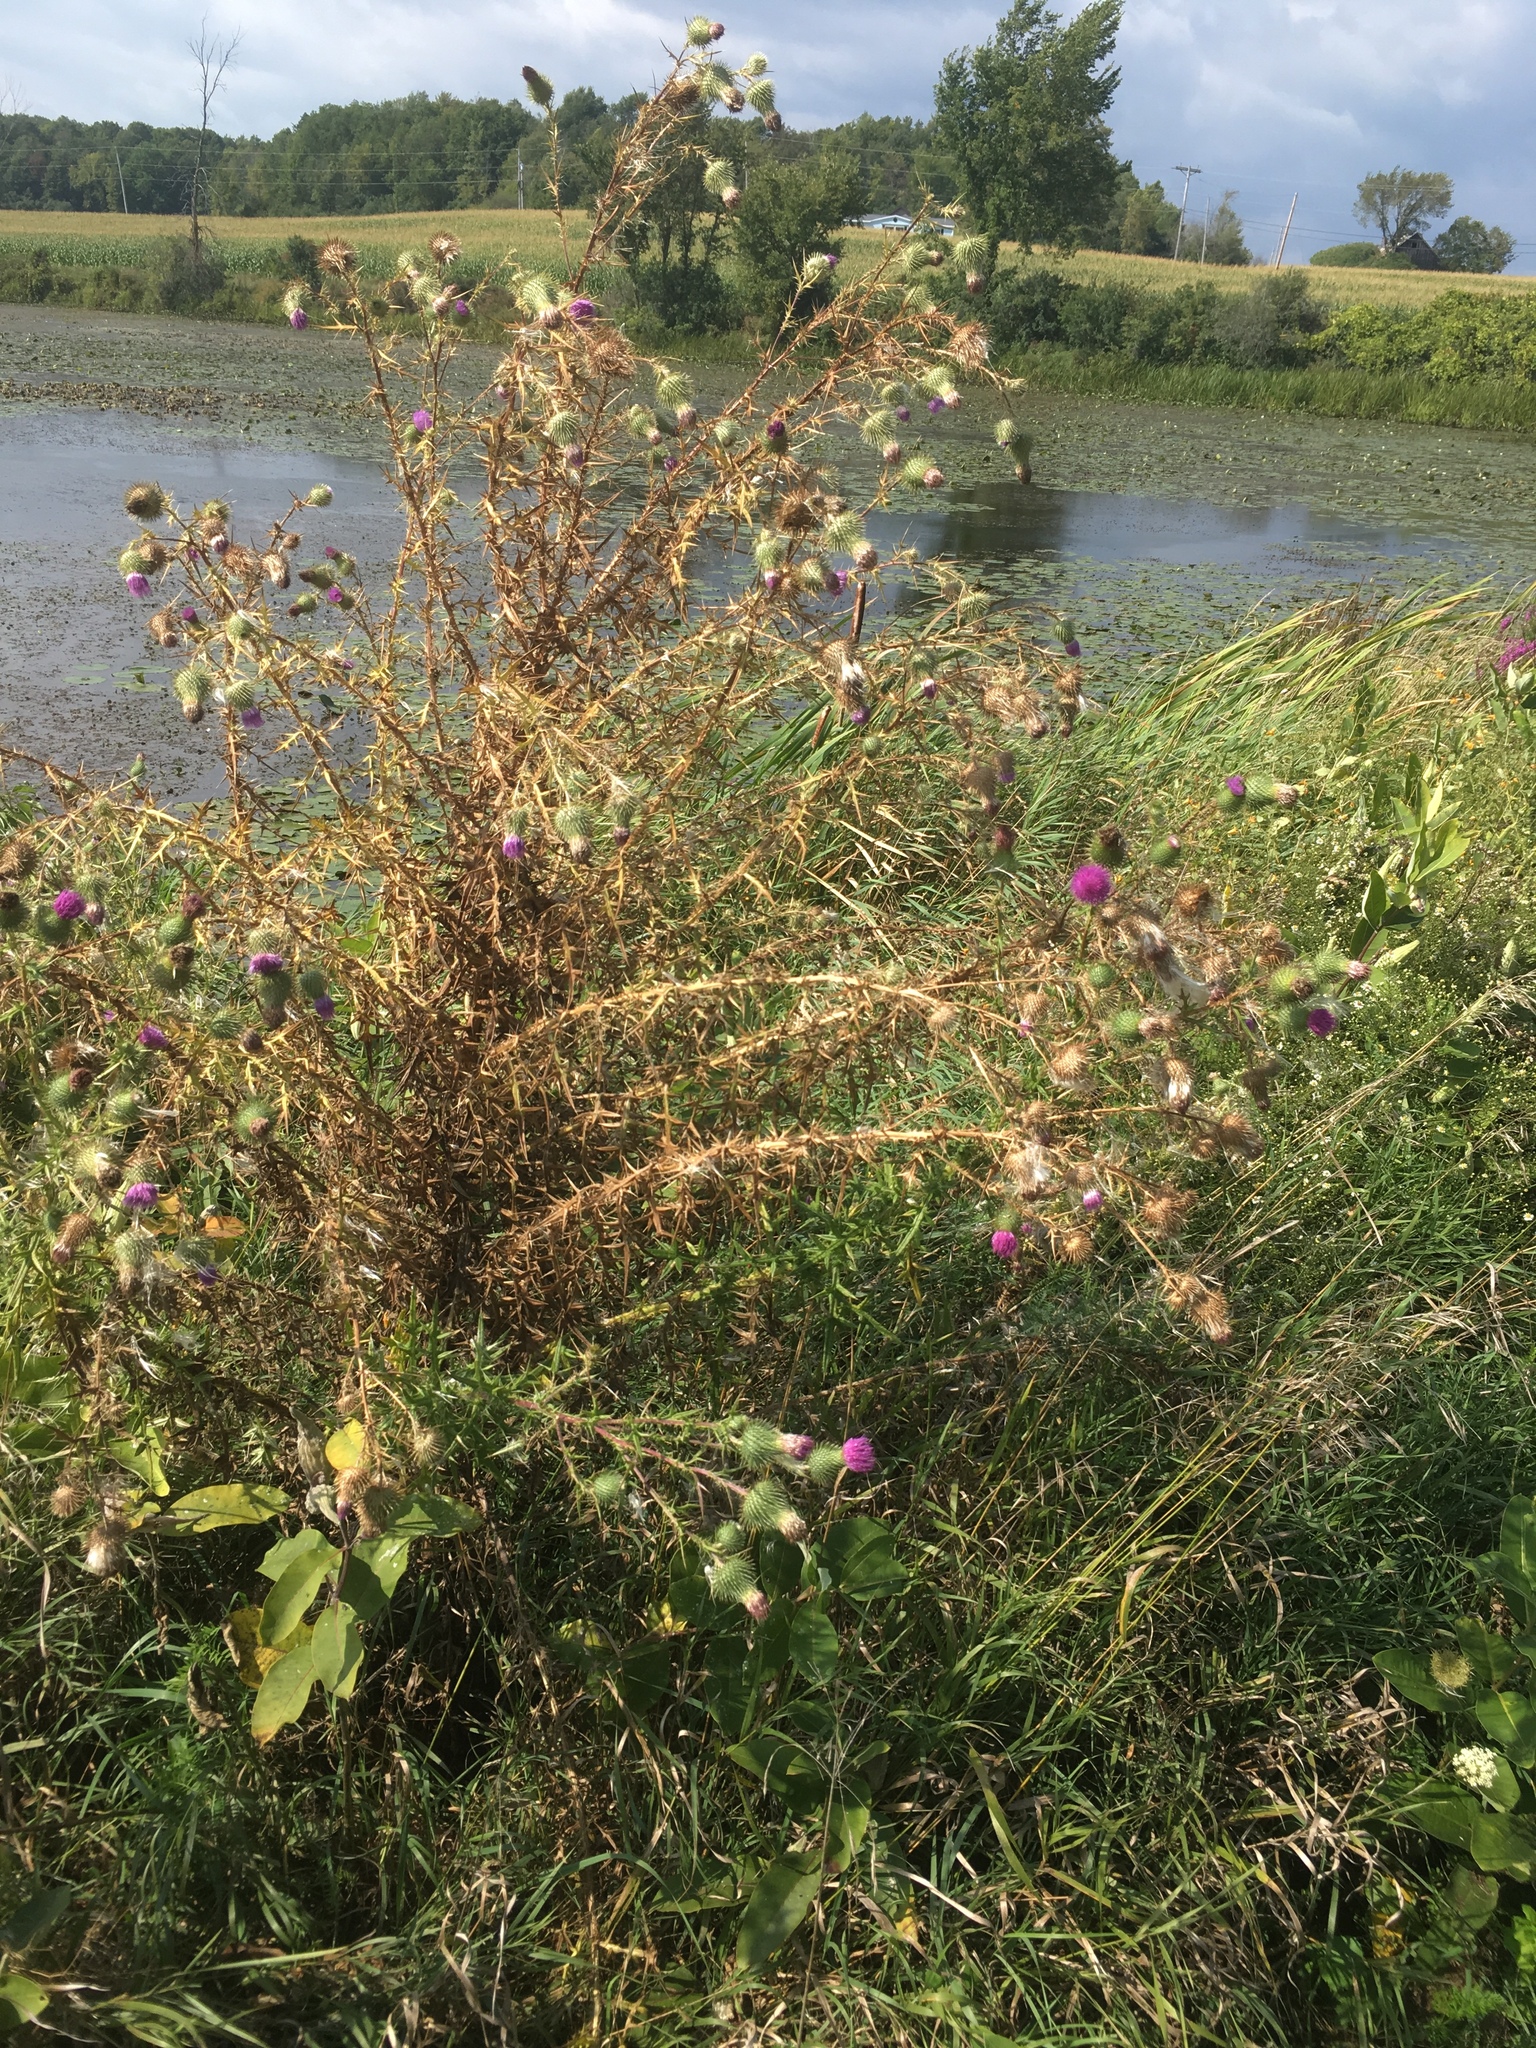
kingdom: Plantae
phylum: Tracheophyta
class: Magnoliopsida
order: Asterales
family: Asteraceae
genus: Cirsium
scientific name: Cirsium vulgare
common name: Bull thistle
